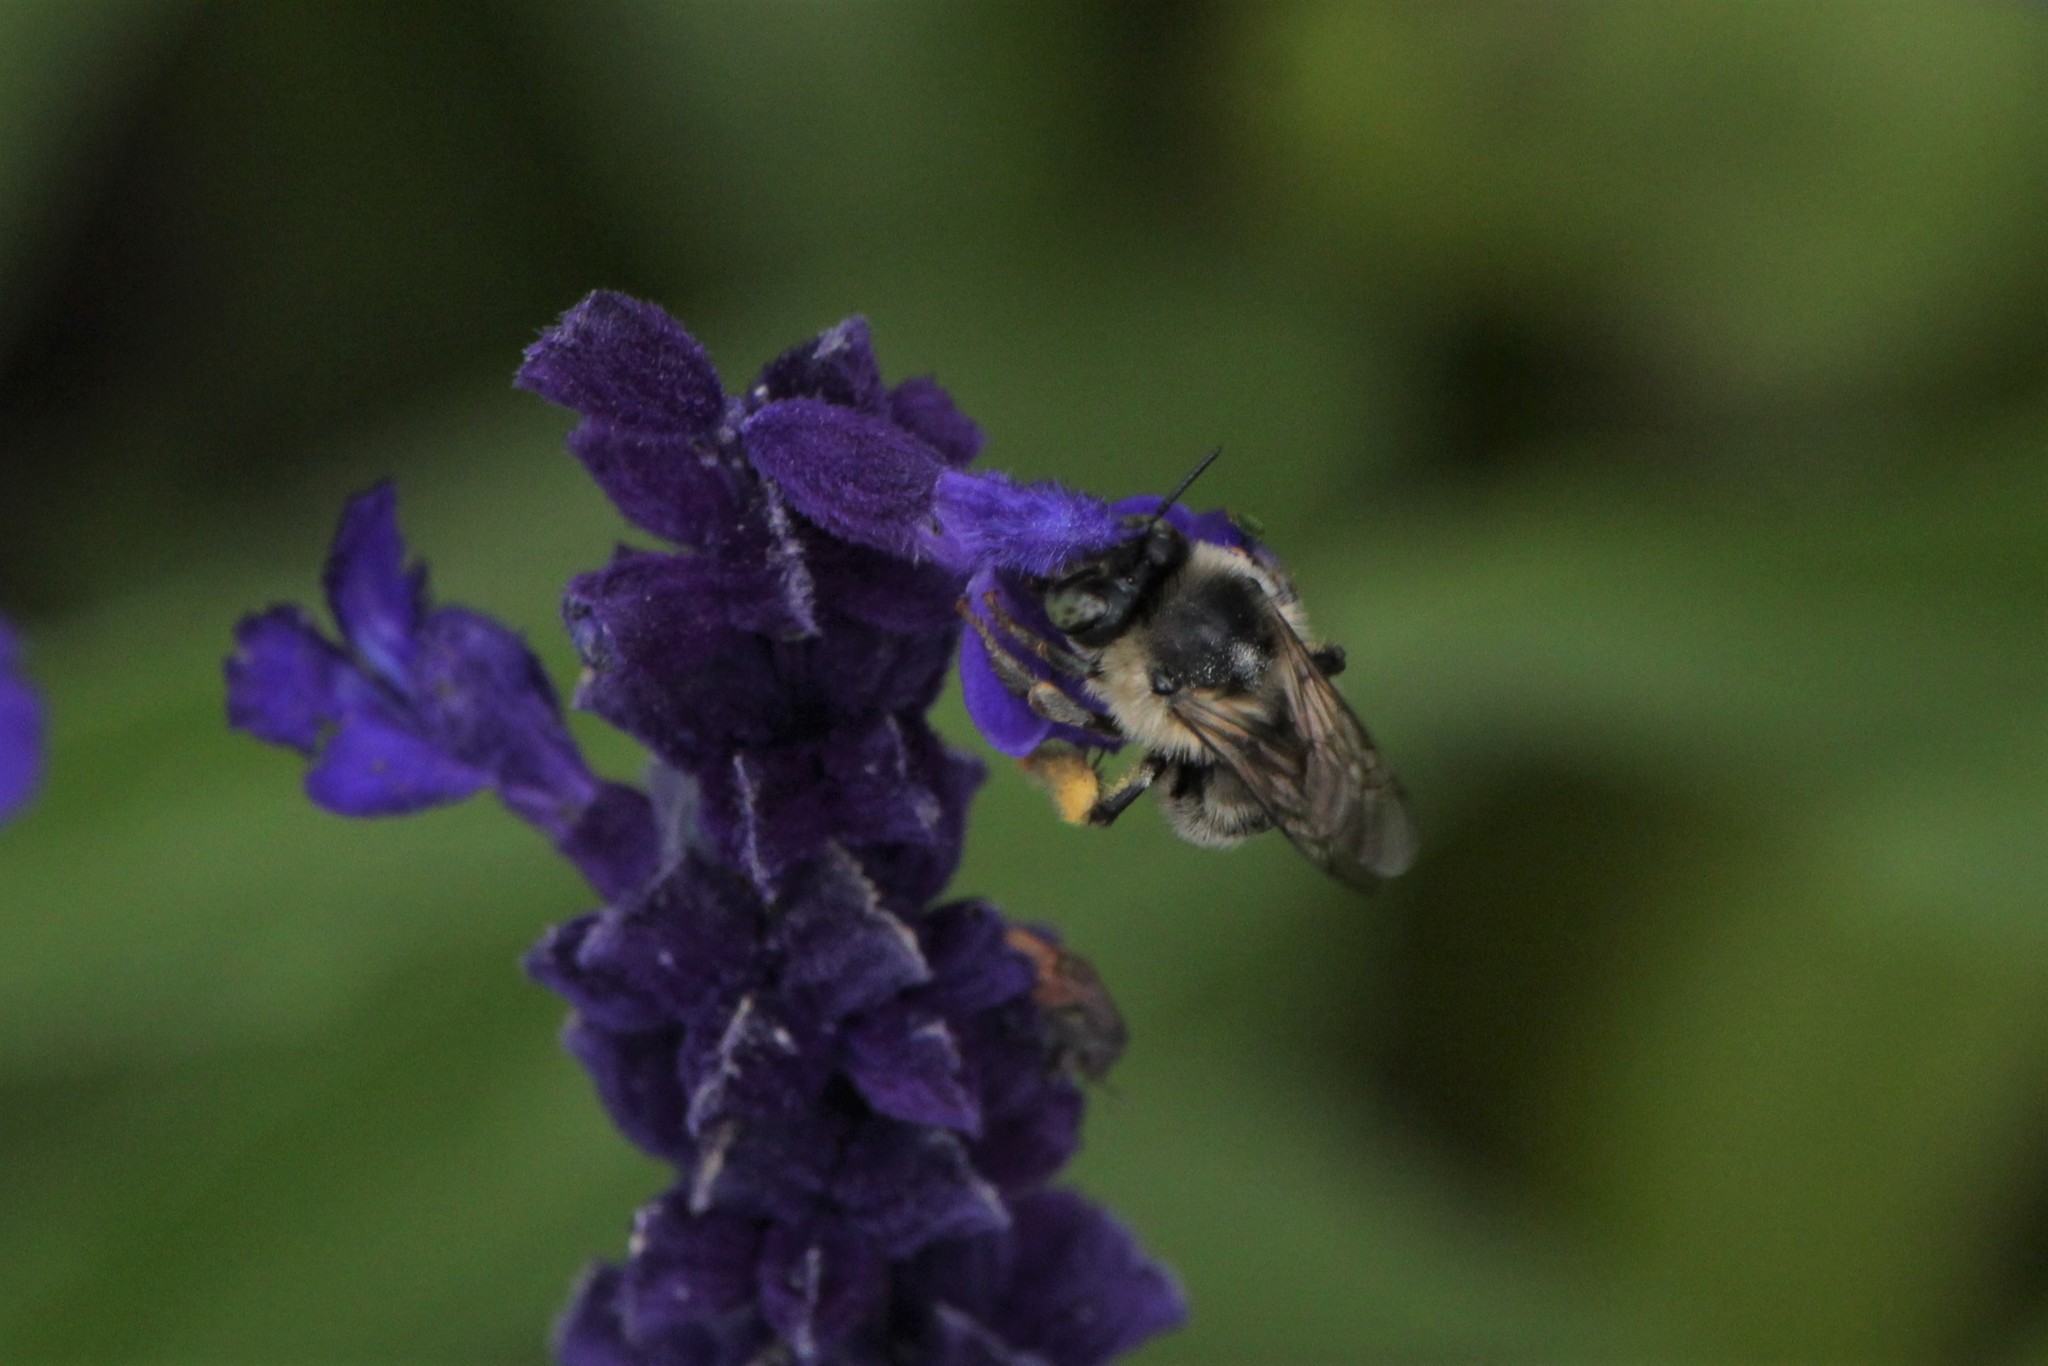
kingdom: Animalia
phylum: Arthropoda
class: Insecta
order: Hymenoptera
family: Apidae
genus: Anthophora
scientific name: Anthophora terminalis
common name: Orange-tipped wood-digger bee
